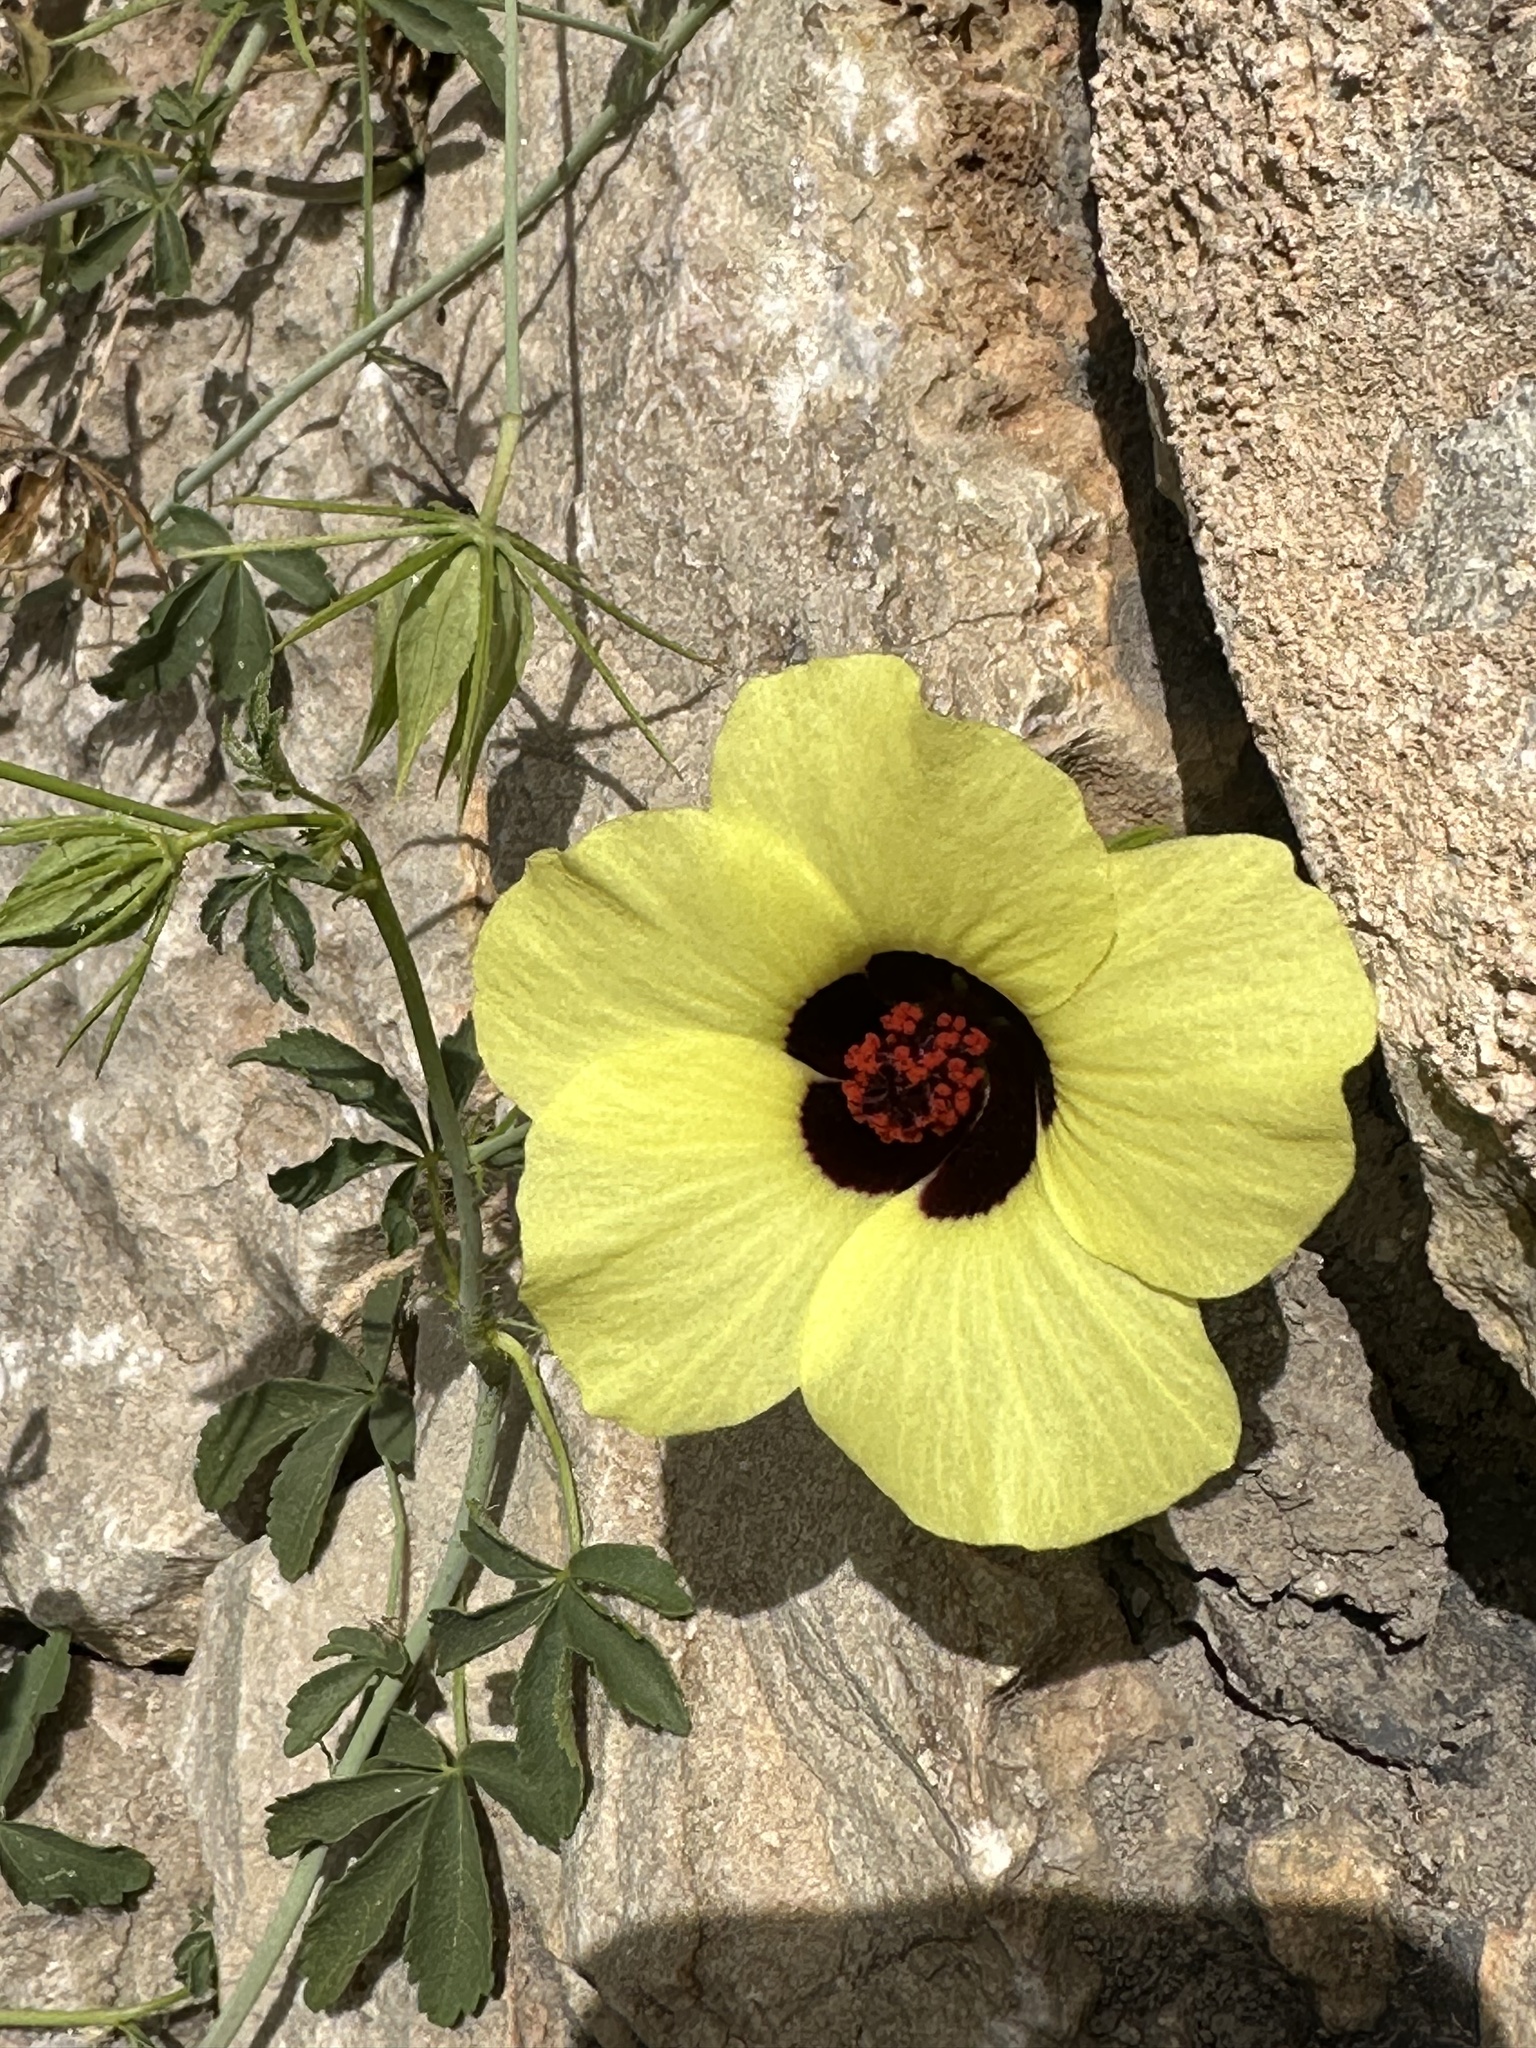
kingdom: Plantae
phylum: Tracheophyta
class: Magnoliopsida
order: Malvales
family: Malvaceae
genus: Hibiscus
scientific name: Hibiscus caesius
